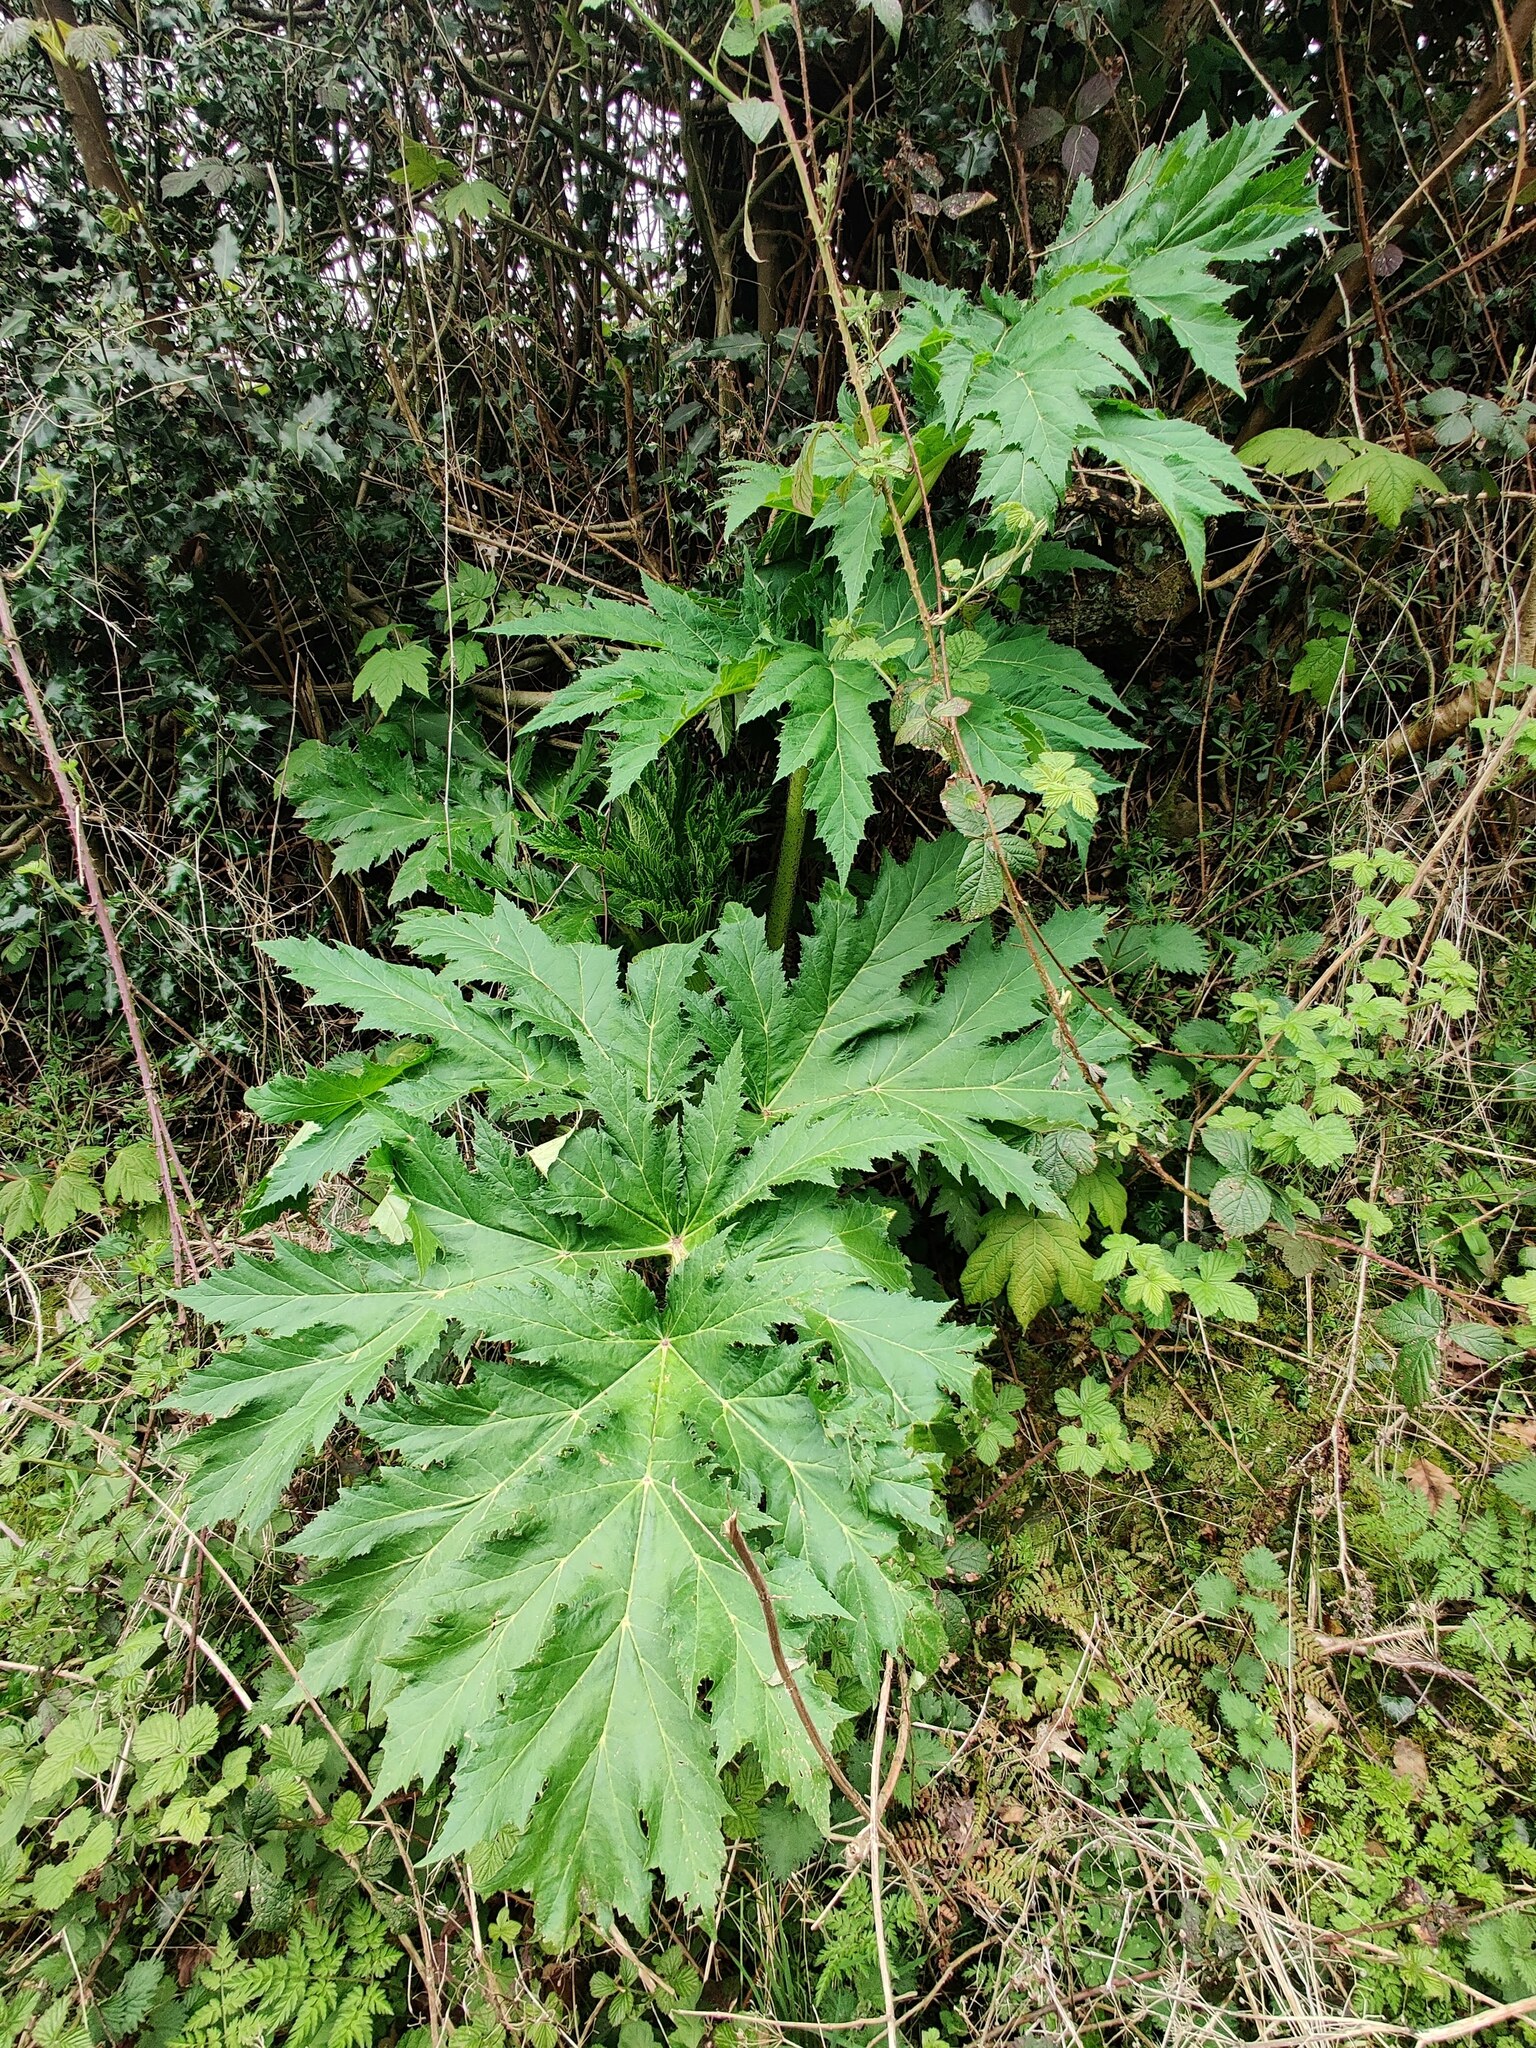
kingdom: Plantae
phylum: Tracheophyta
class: Magnoliopsida
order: Apiales
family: Apiaceae
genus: Heracleum
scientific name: Heracleum mantegazzianum
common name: Giant hogweed
